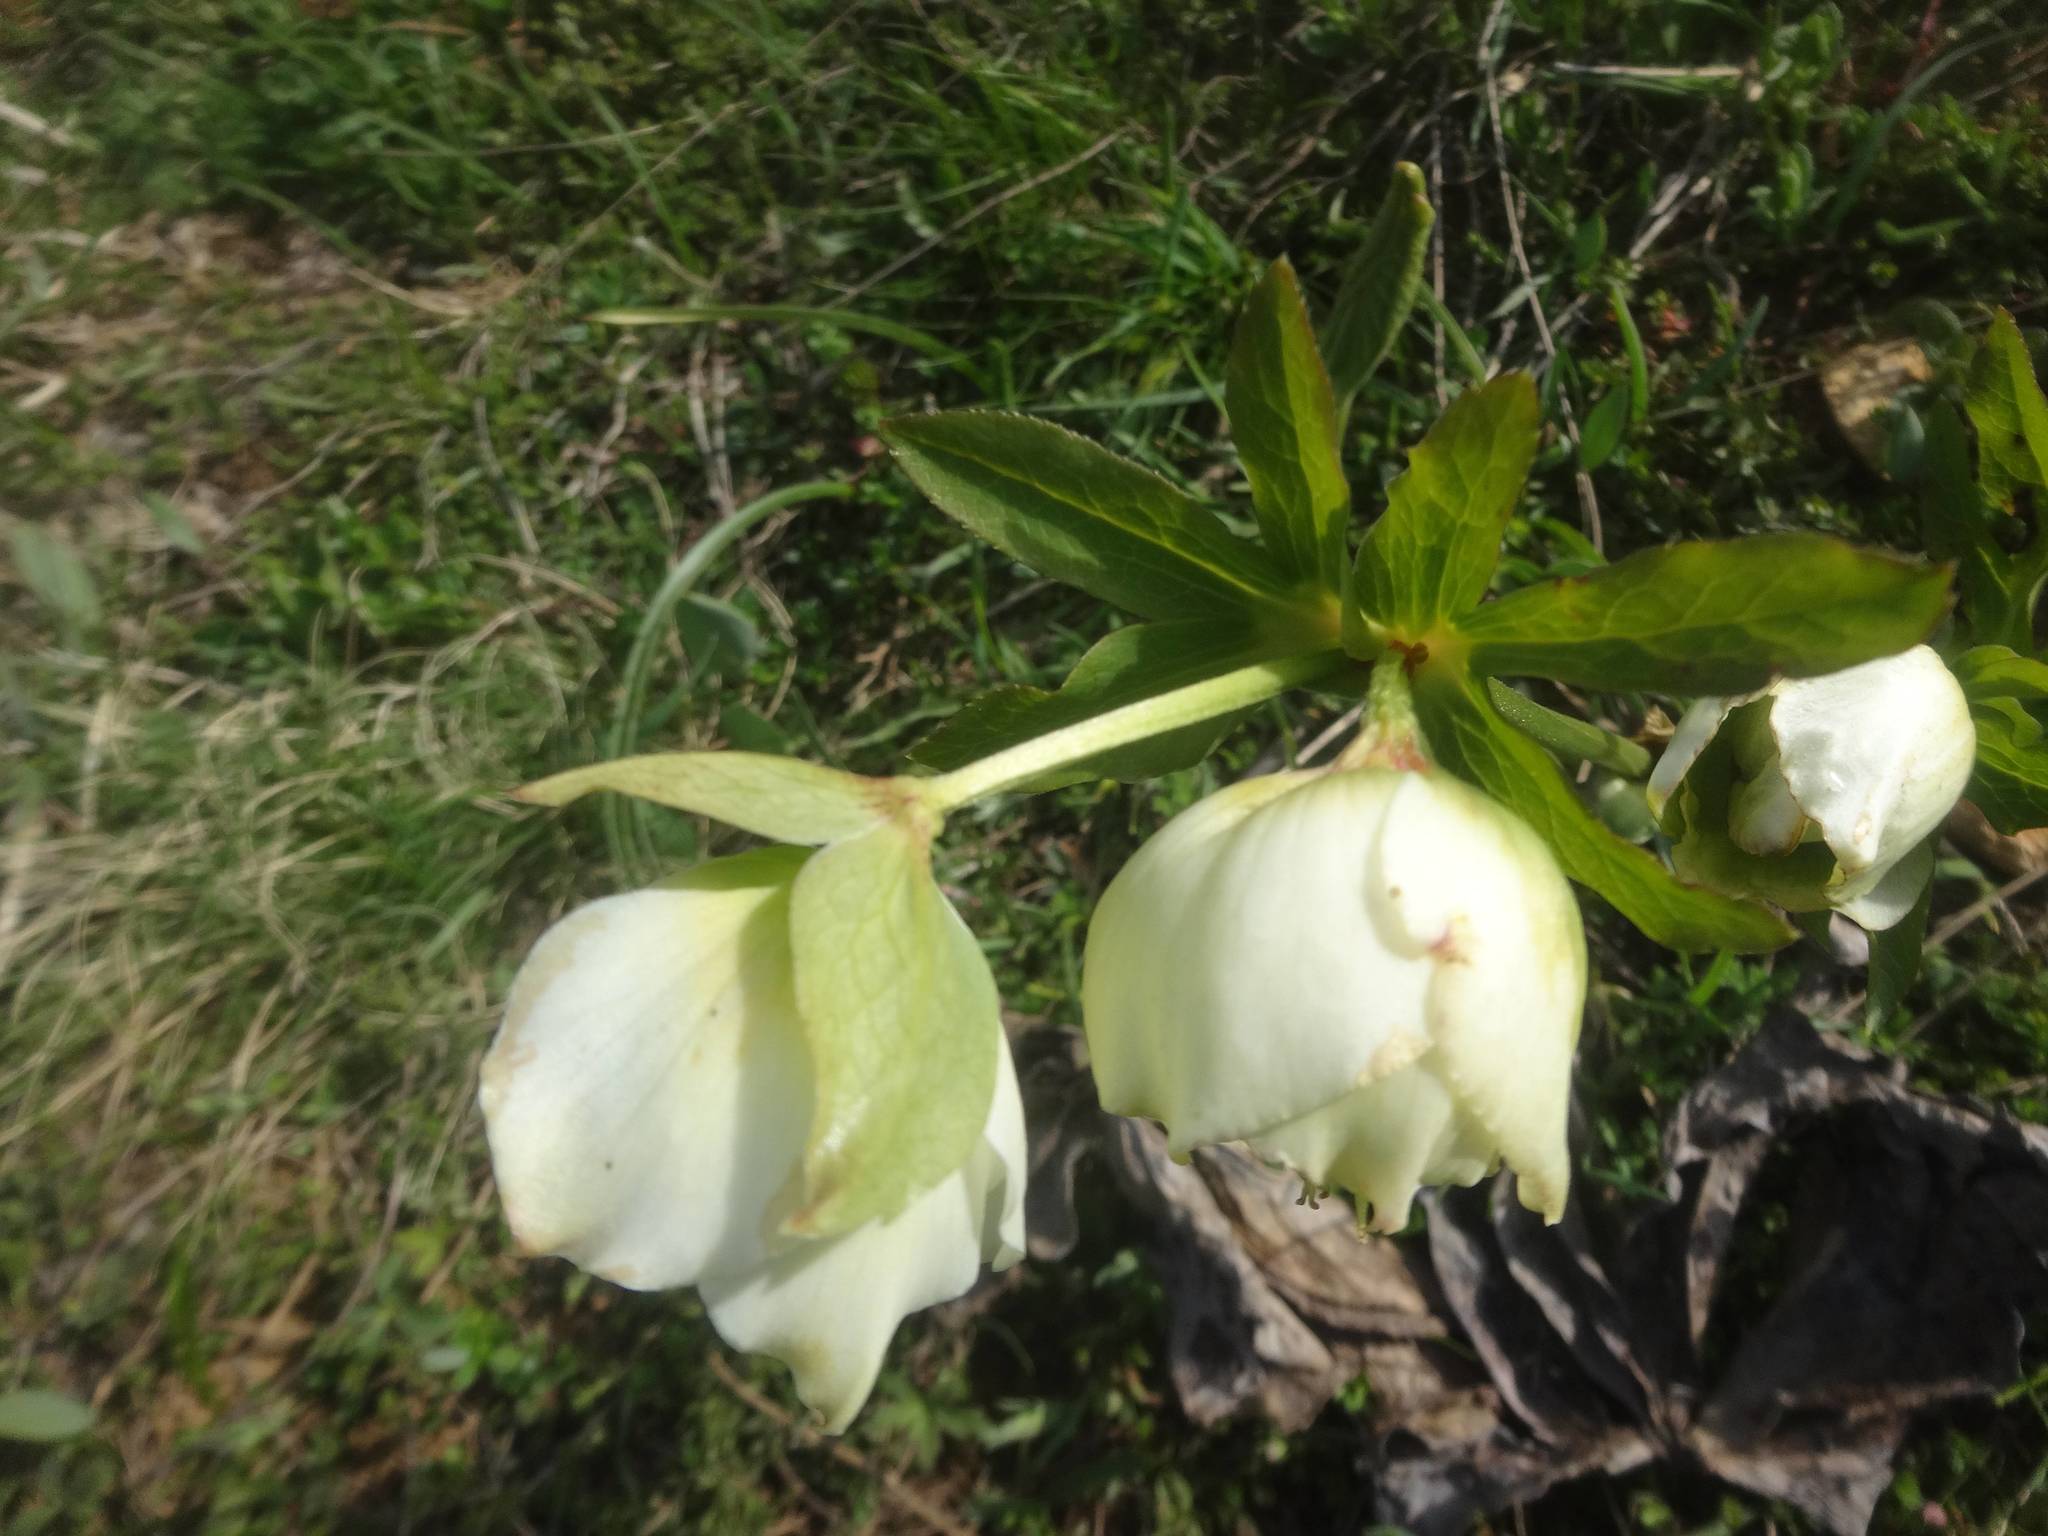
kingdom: Plantae
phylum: Tracheophyta
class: Magnoliopsida
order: Ranunculales
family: Ranunculaceae
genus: Helleborus
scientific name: Helleborus orientalis
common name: Lenten-rose
